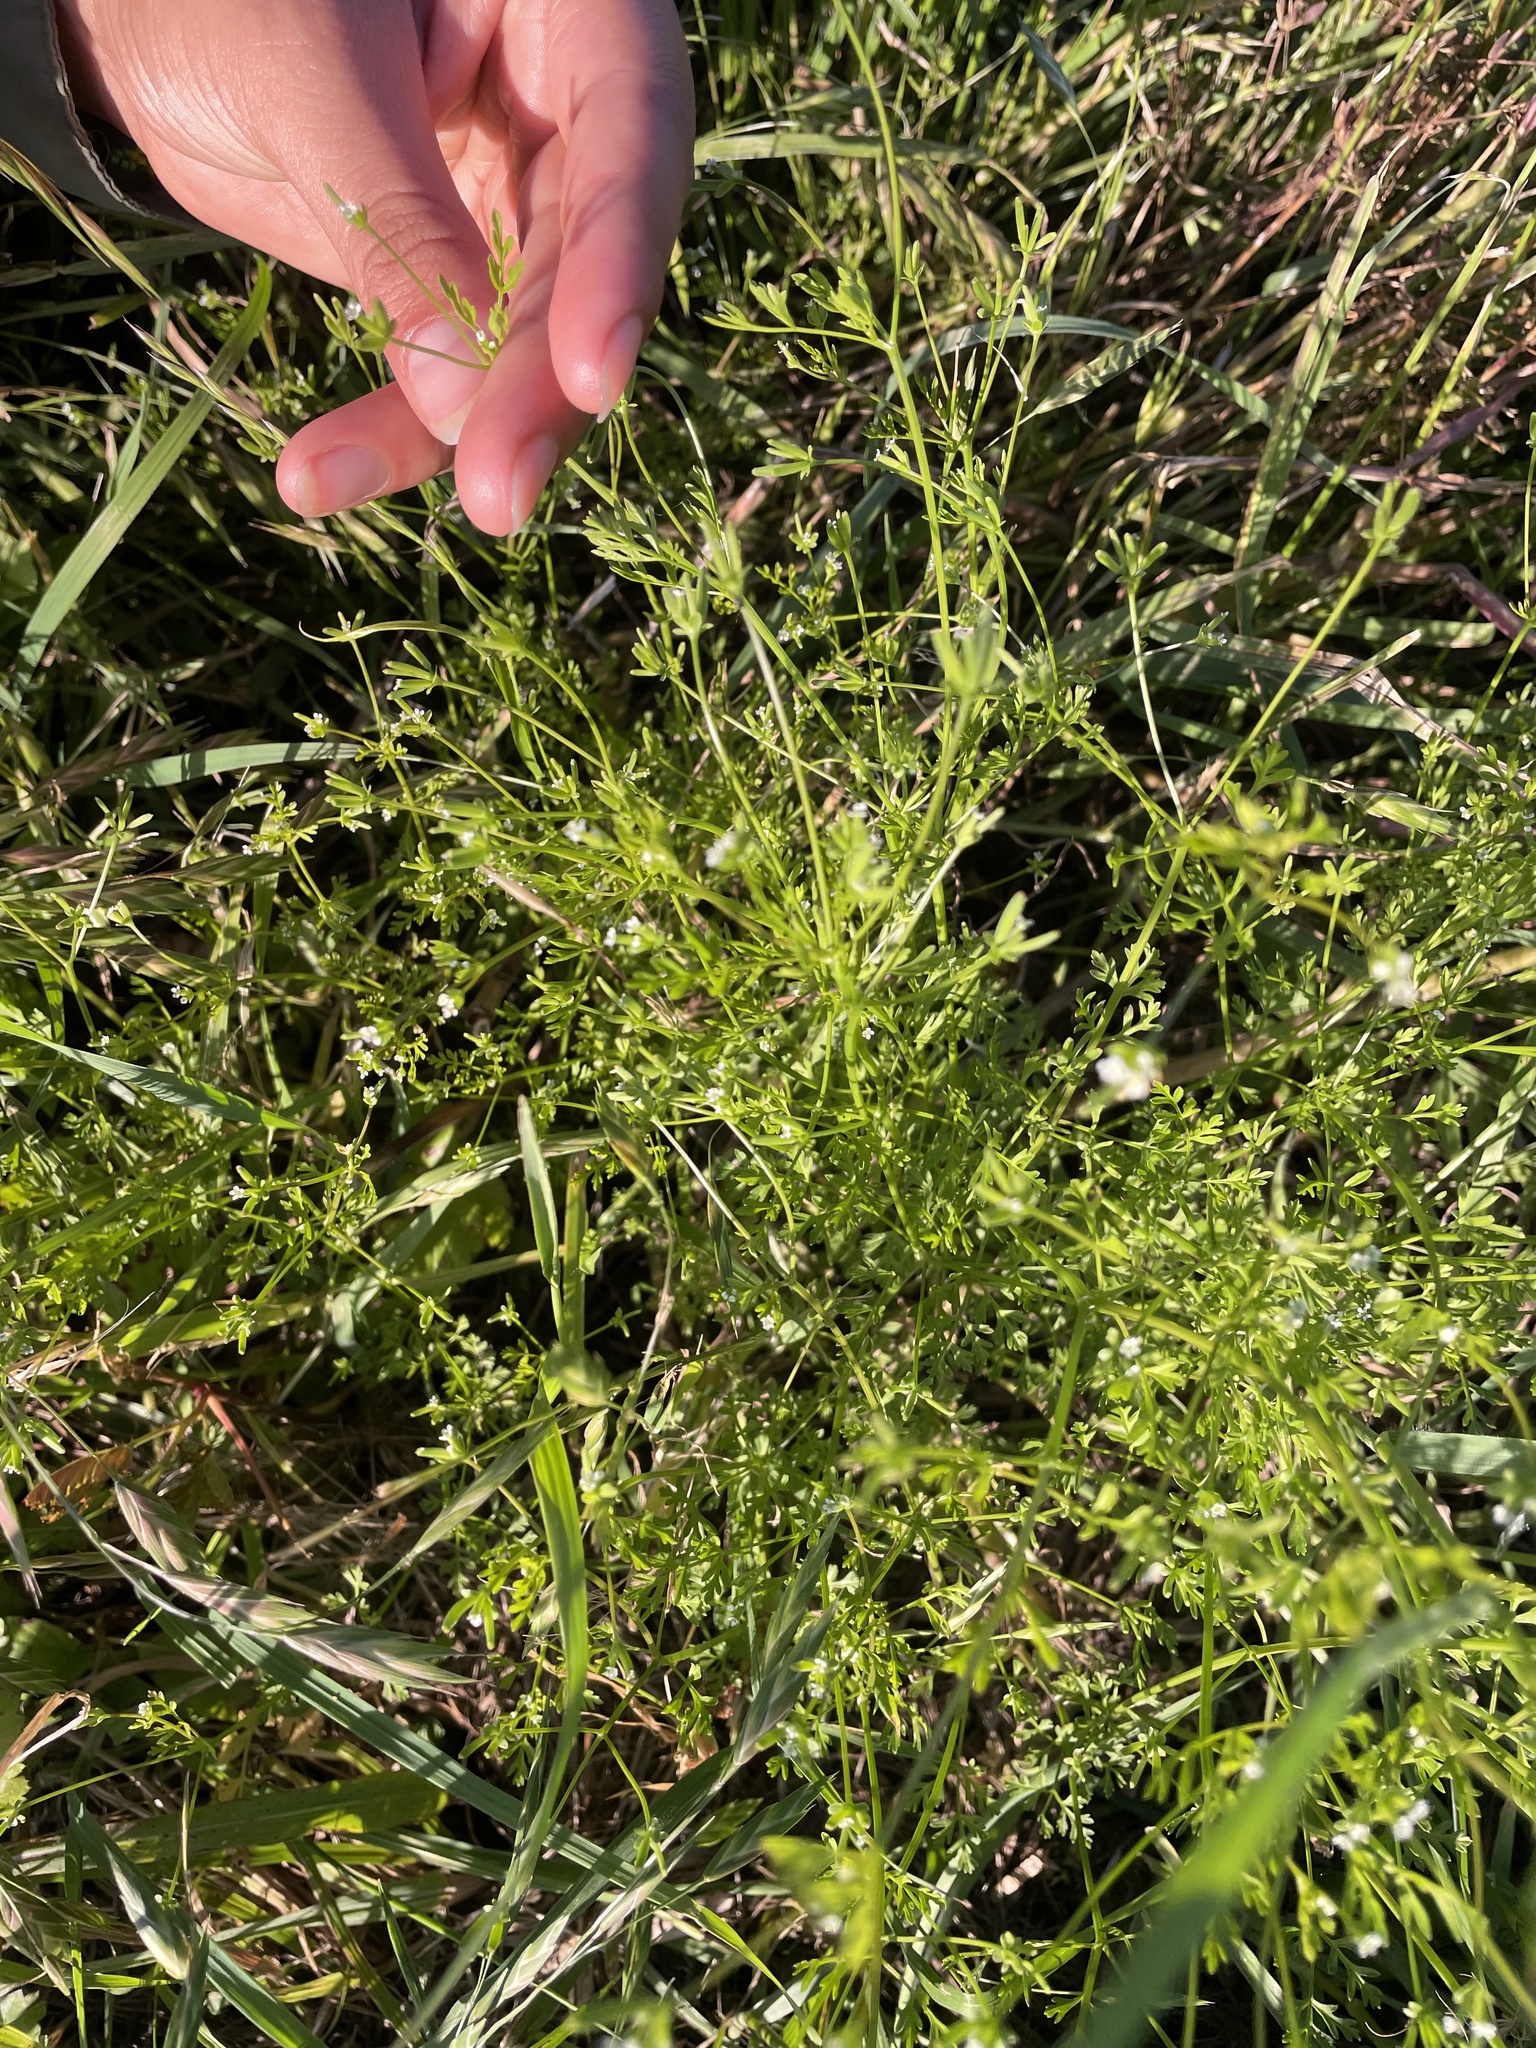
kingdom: Plantae
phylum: Tracheophyta
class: Magnoliopsida
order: Apiales
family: Apiaceae
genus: Chaerophyllum
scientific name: Chaerophyllum tainturieri
